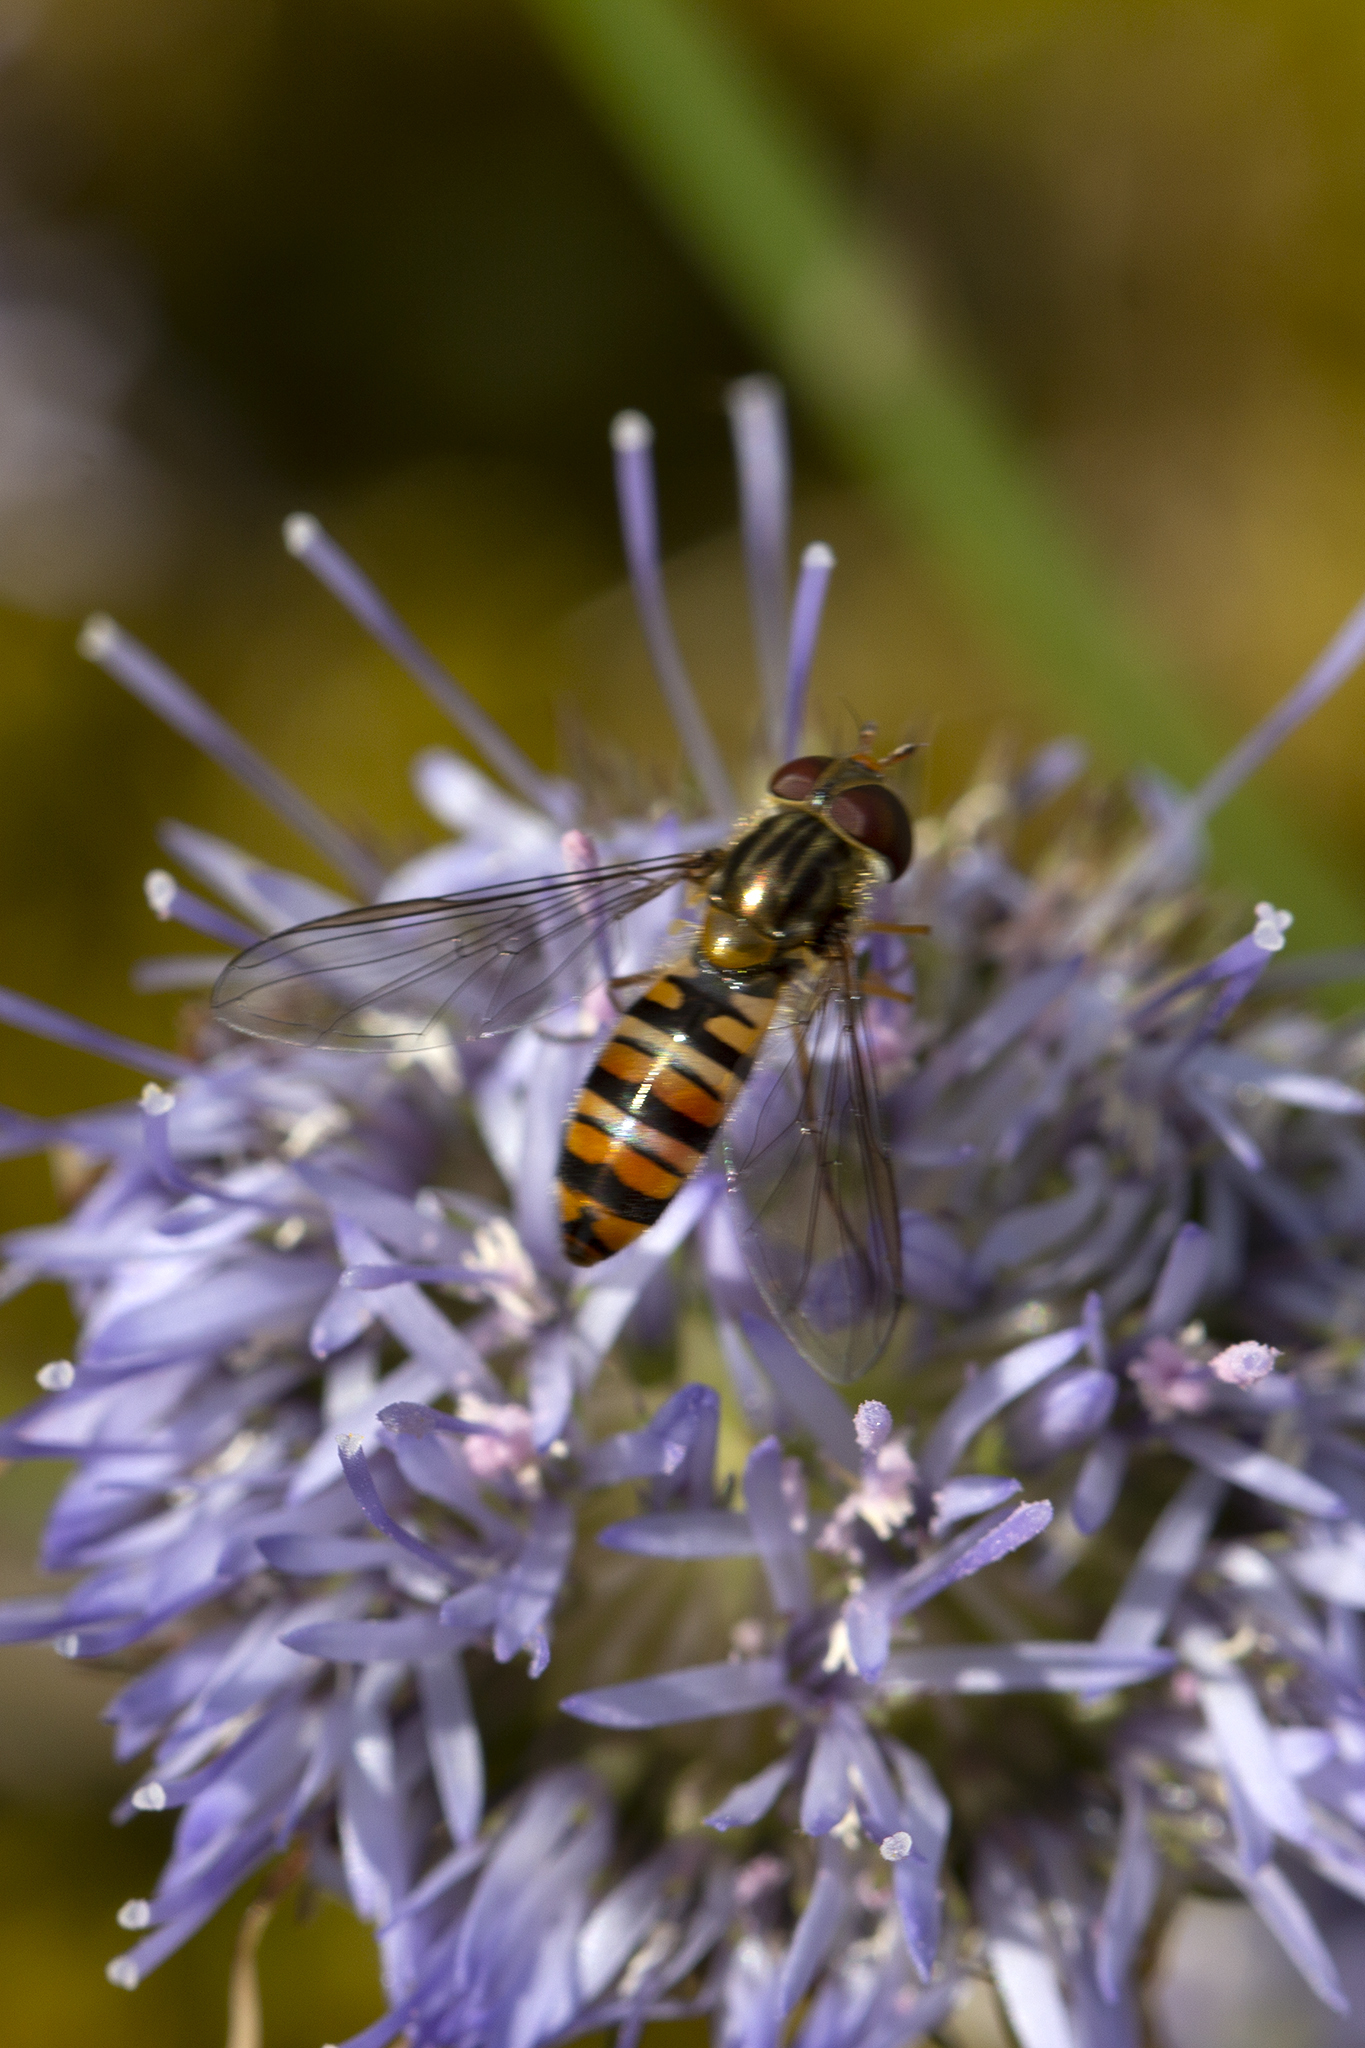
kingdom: Animalia
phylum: Arthropoda
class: Insecta
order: Diptera
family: Syrphidae
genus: Episyrphus
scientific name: Episyrphus balteatus
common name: Marmalade hoverfly
